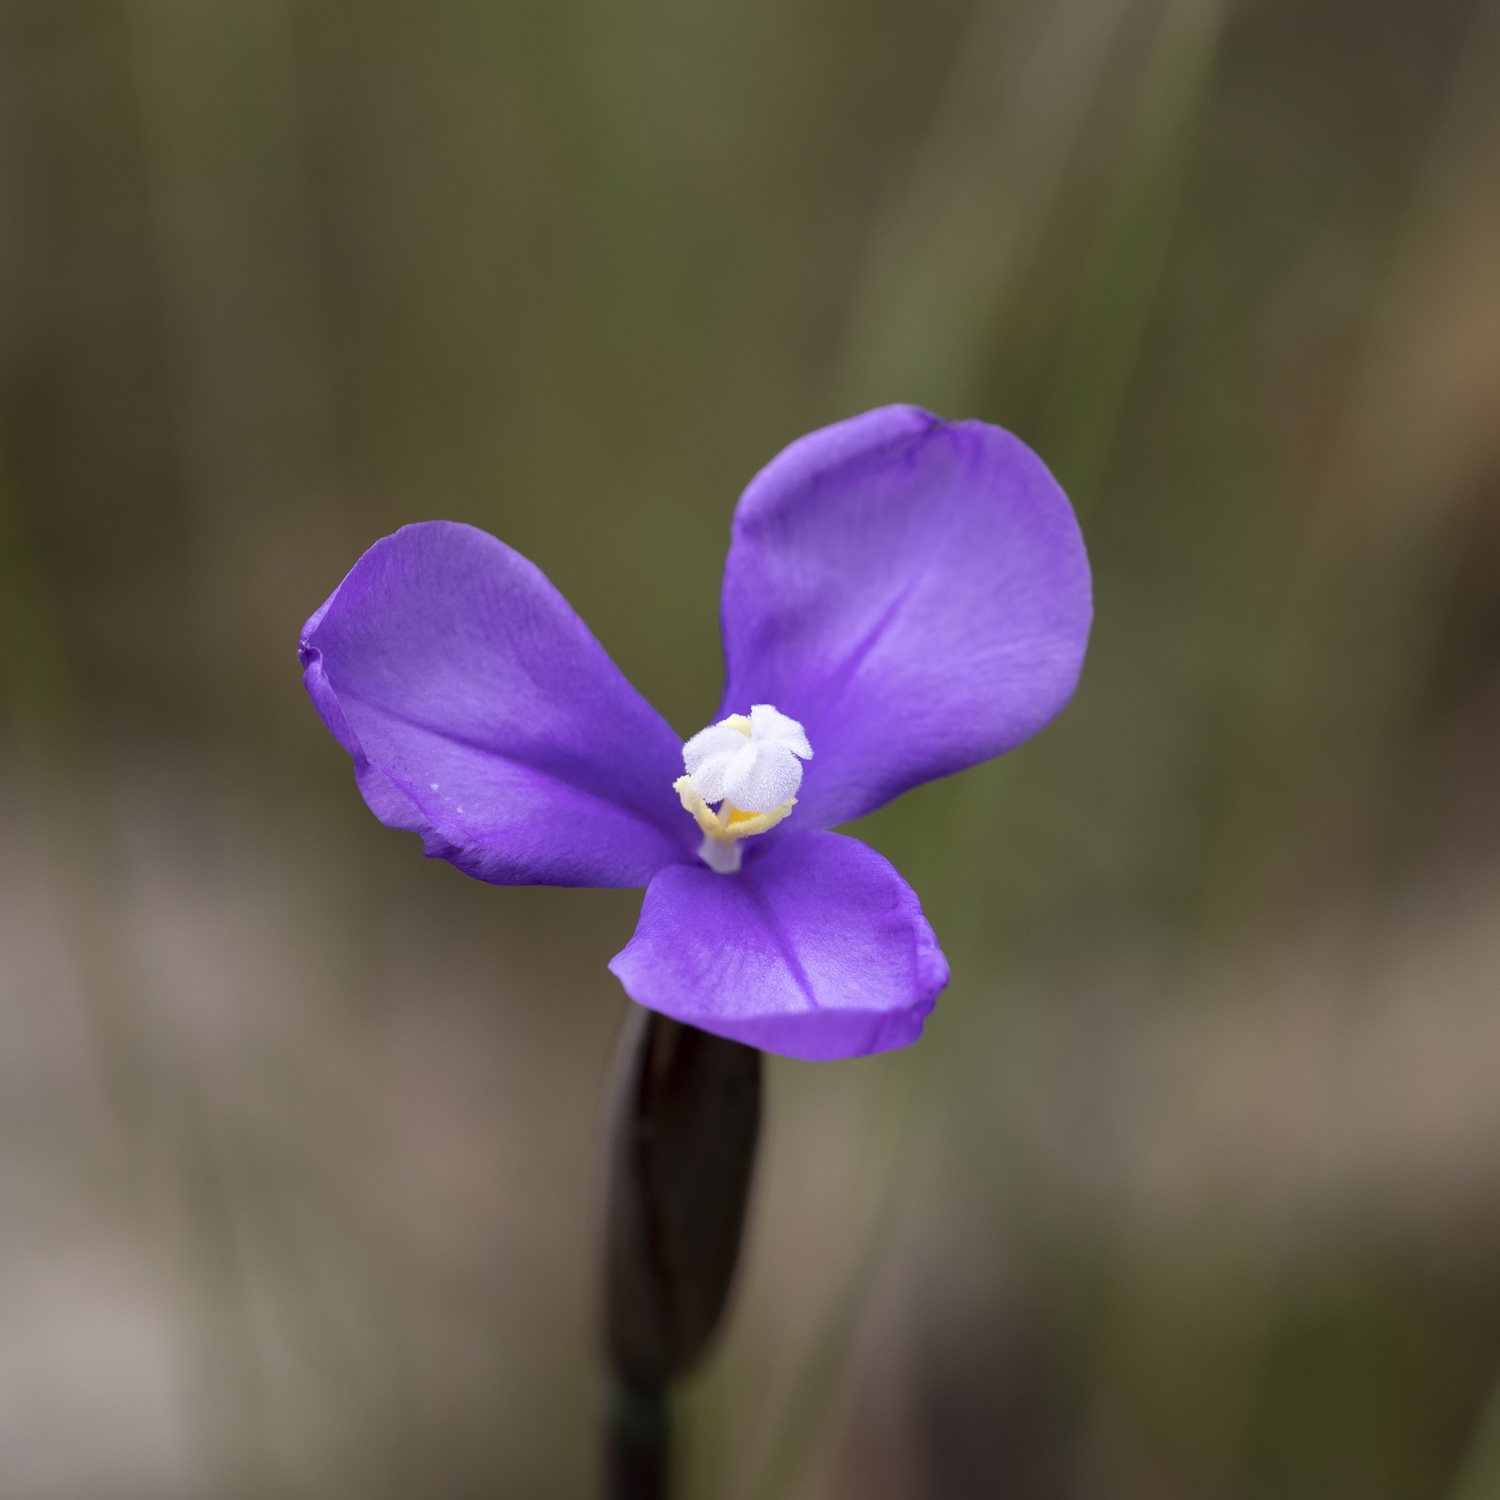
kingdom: Plantae
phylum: Tracheophyta
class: Liliopsida
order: Asparagales
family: Iridaceae
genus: Patersonia
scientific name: Patersonia occidentalis
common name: Long purple-flag
